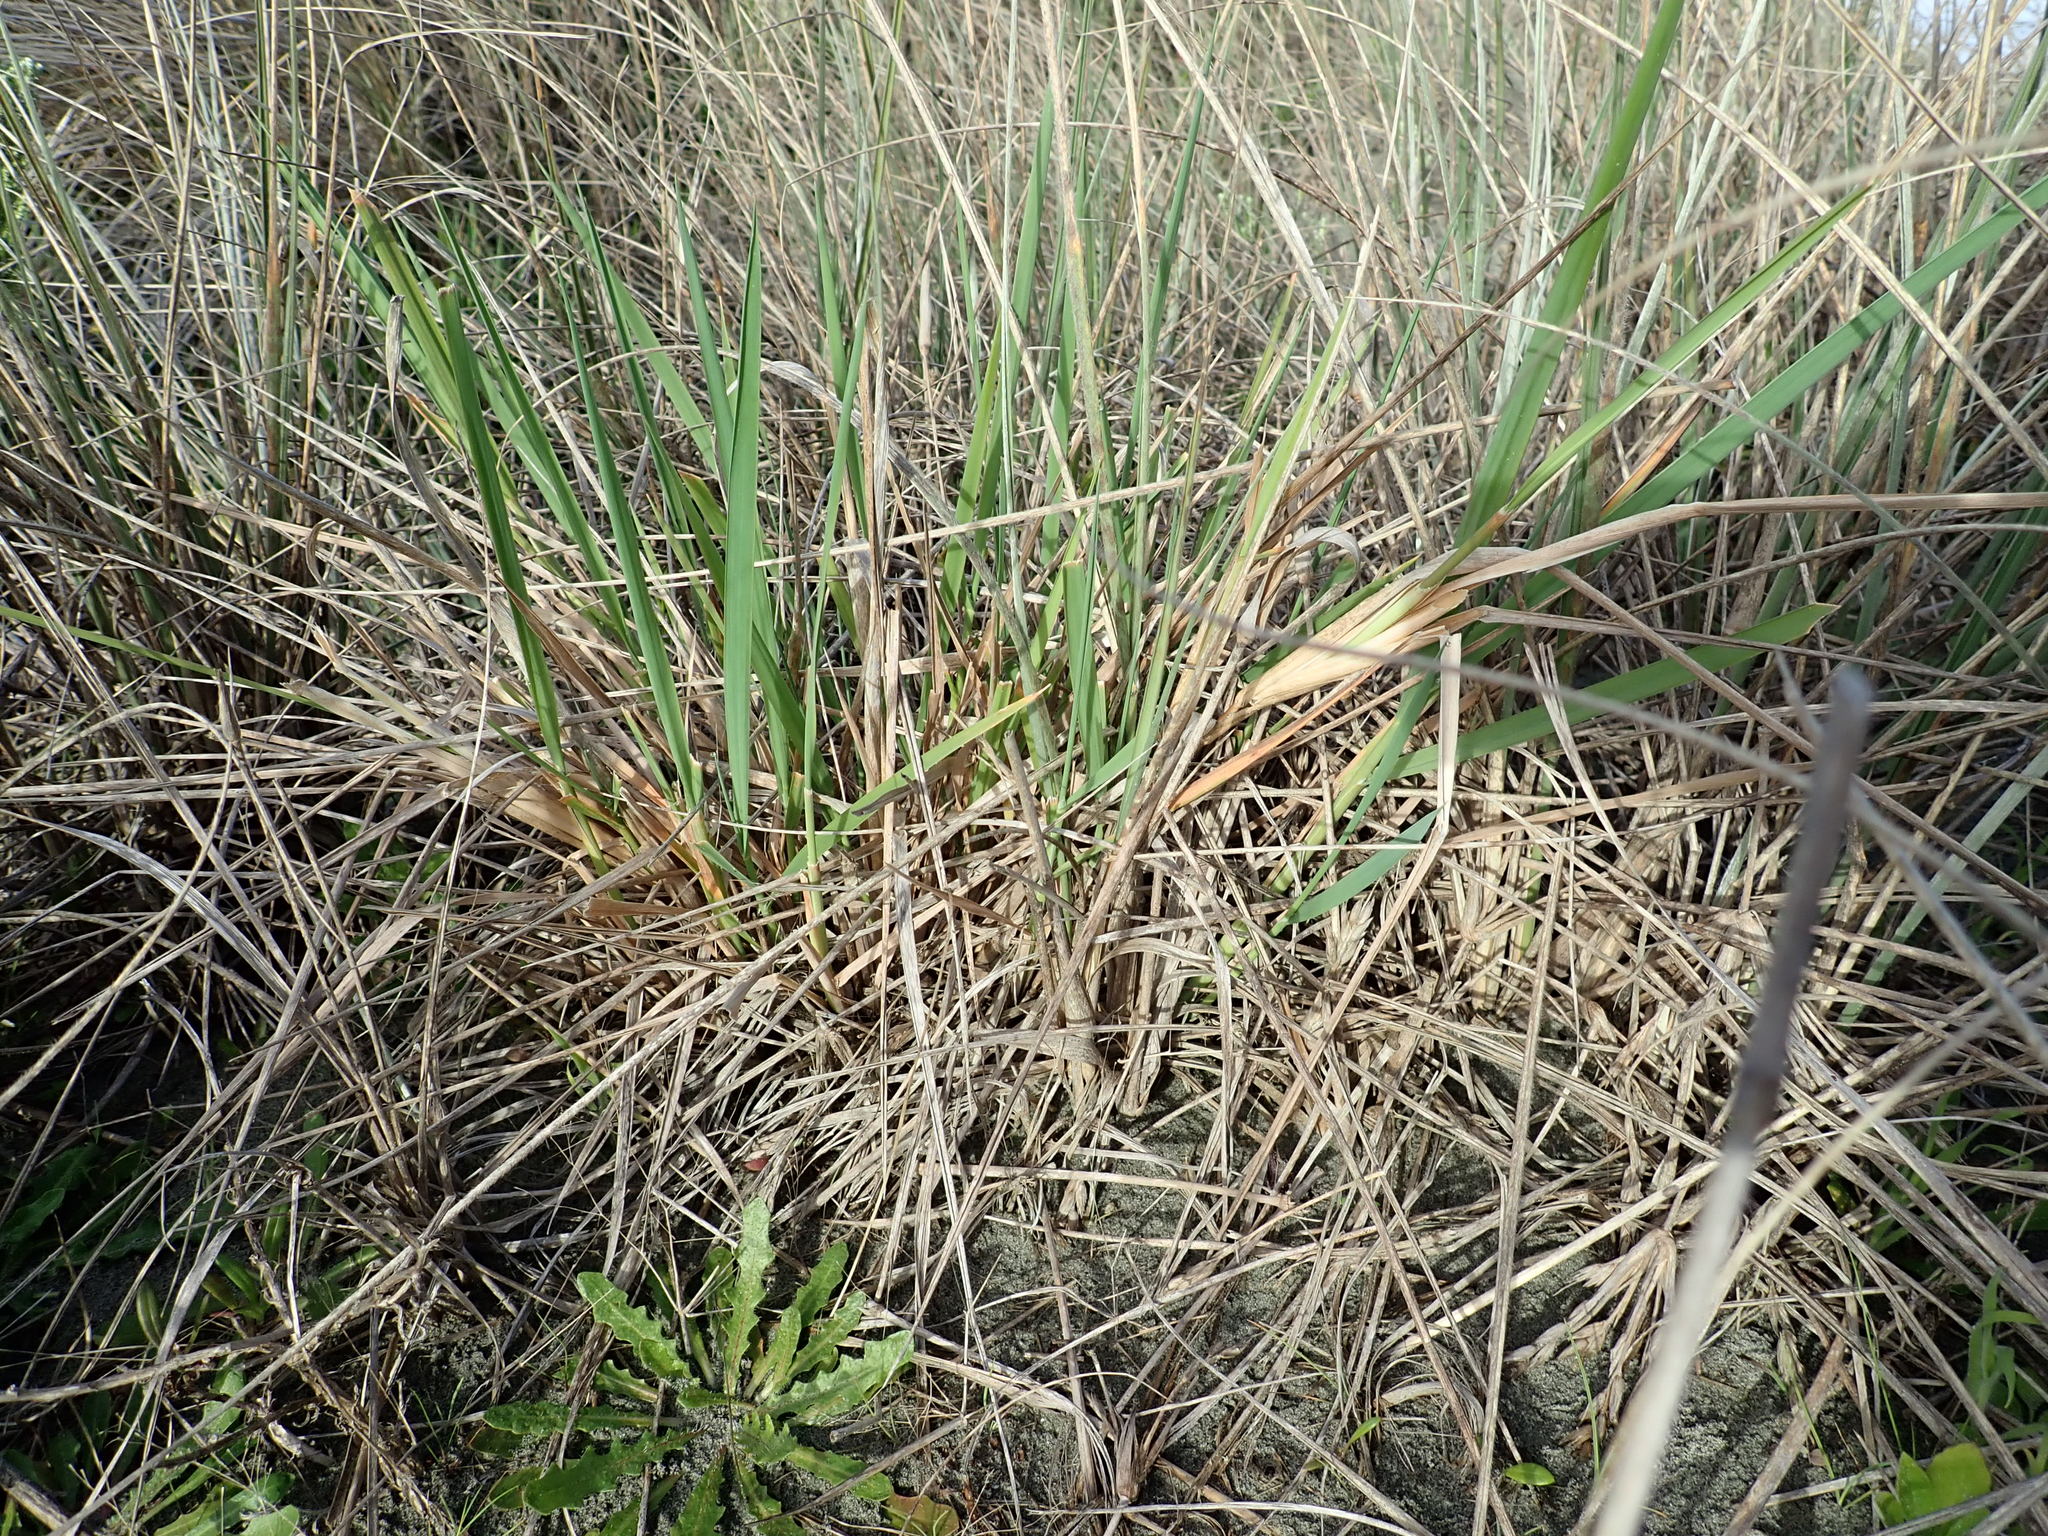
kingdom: Plantae
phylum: Tracheophyta
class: Liliopsida
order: Poales
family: Poaceae
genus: Lachnagrostis
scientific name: Lachnagrostis billardierei
